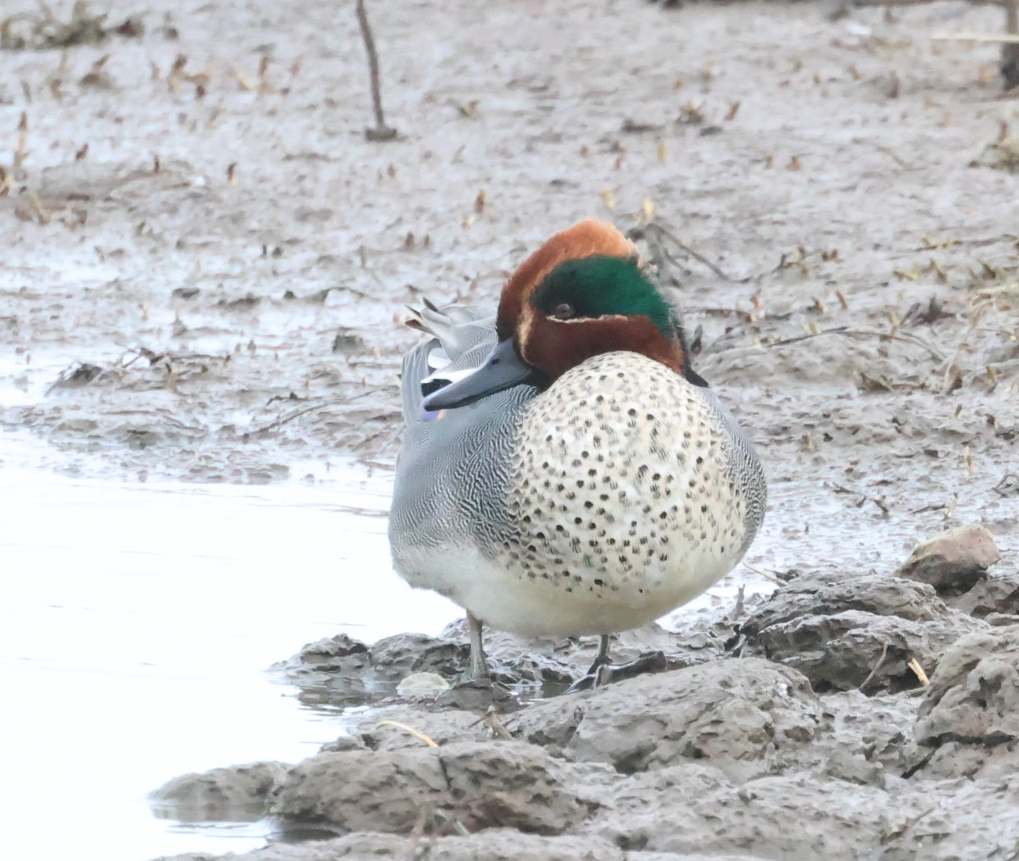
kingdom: Animalia
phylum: Chordata
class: Aves
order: Anseriformes
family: Anatidae
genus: Anas
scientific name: Anas crecca
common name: Eurasian teal
